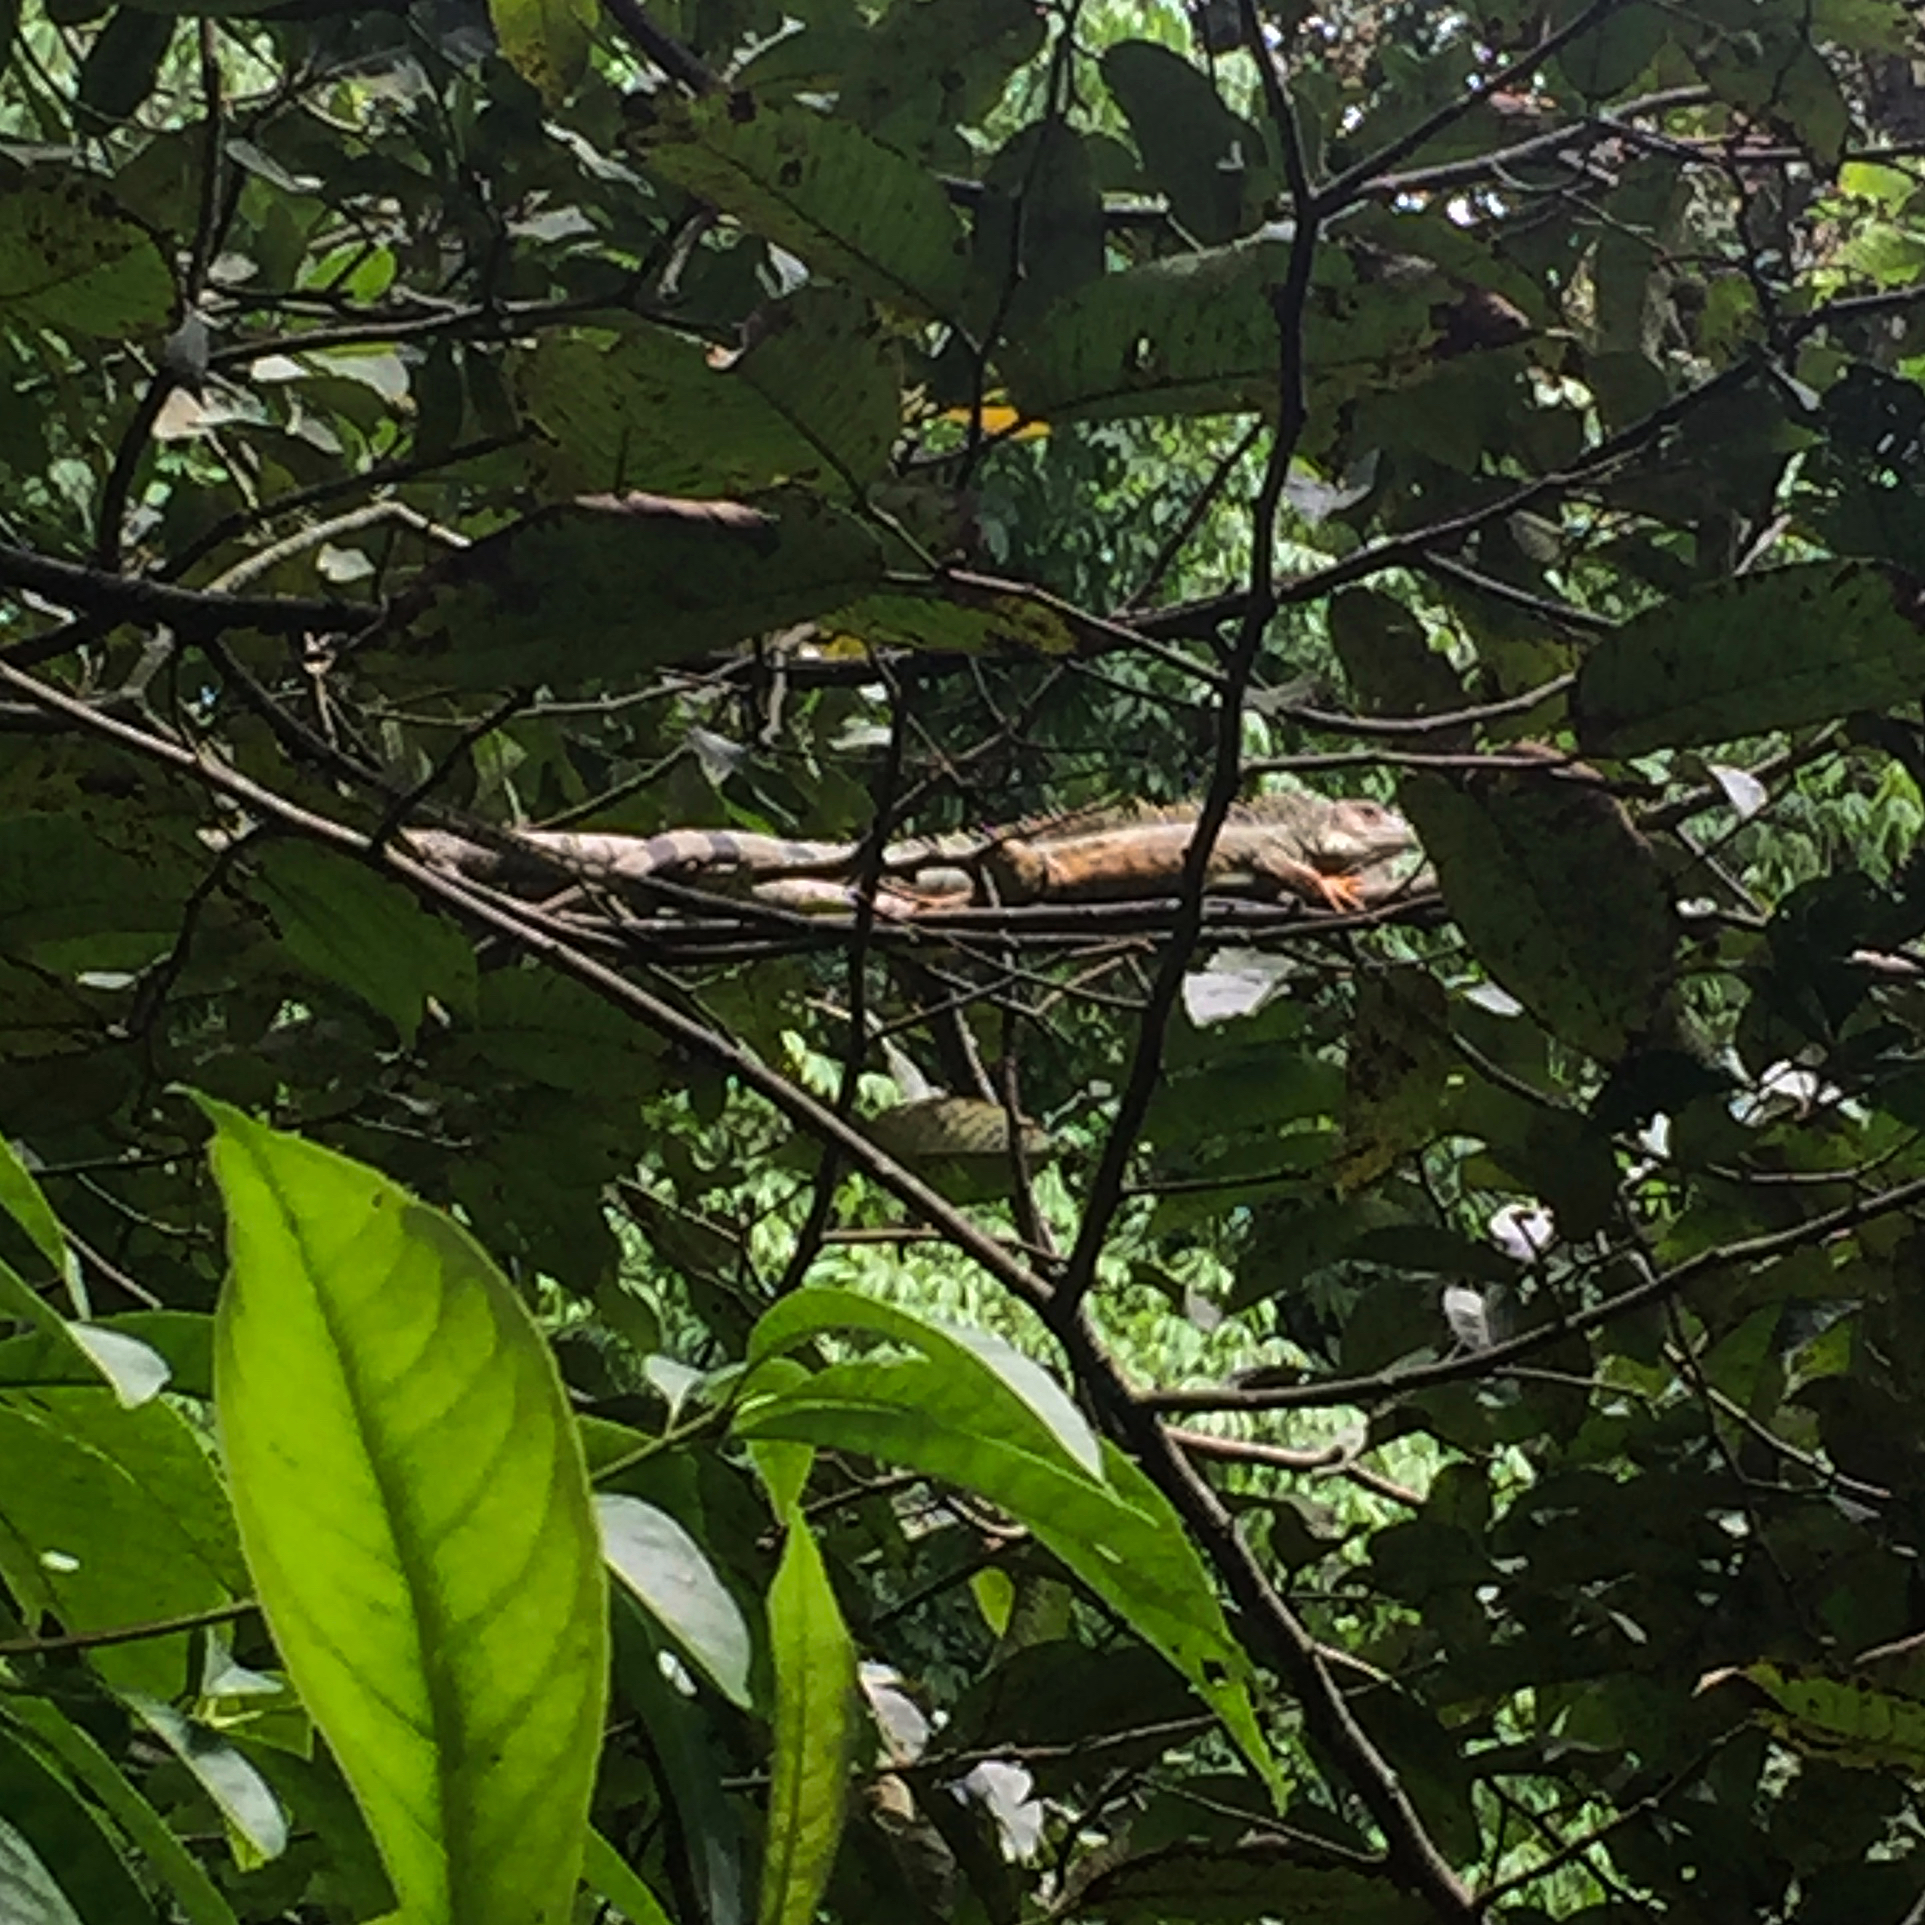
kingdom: Animalia
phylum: Chordata
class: Squamata
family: Iguanidae
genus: Iguana
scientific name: Iguana iguana
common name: Green iguana
